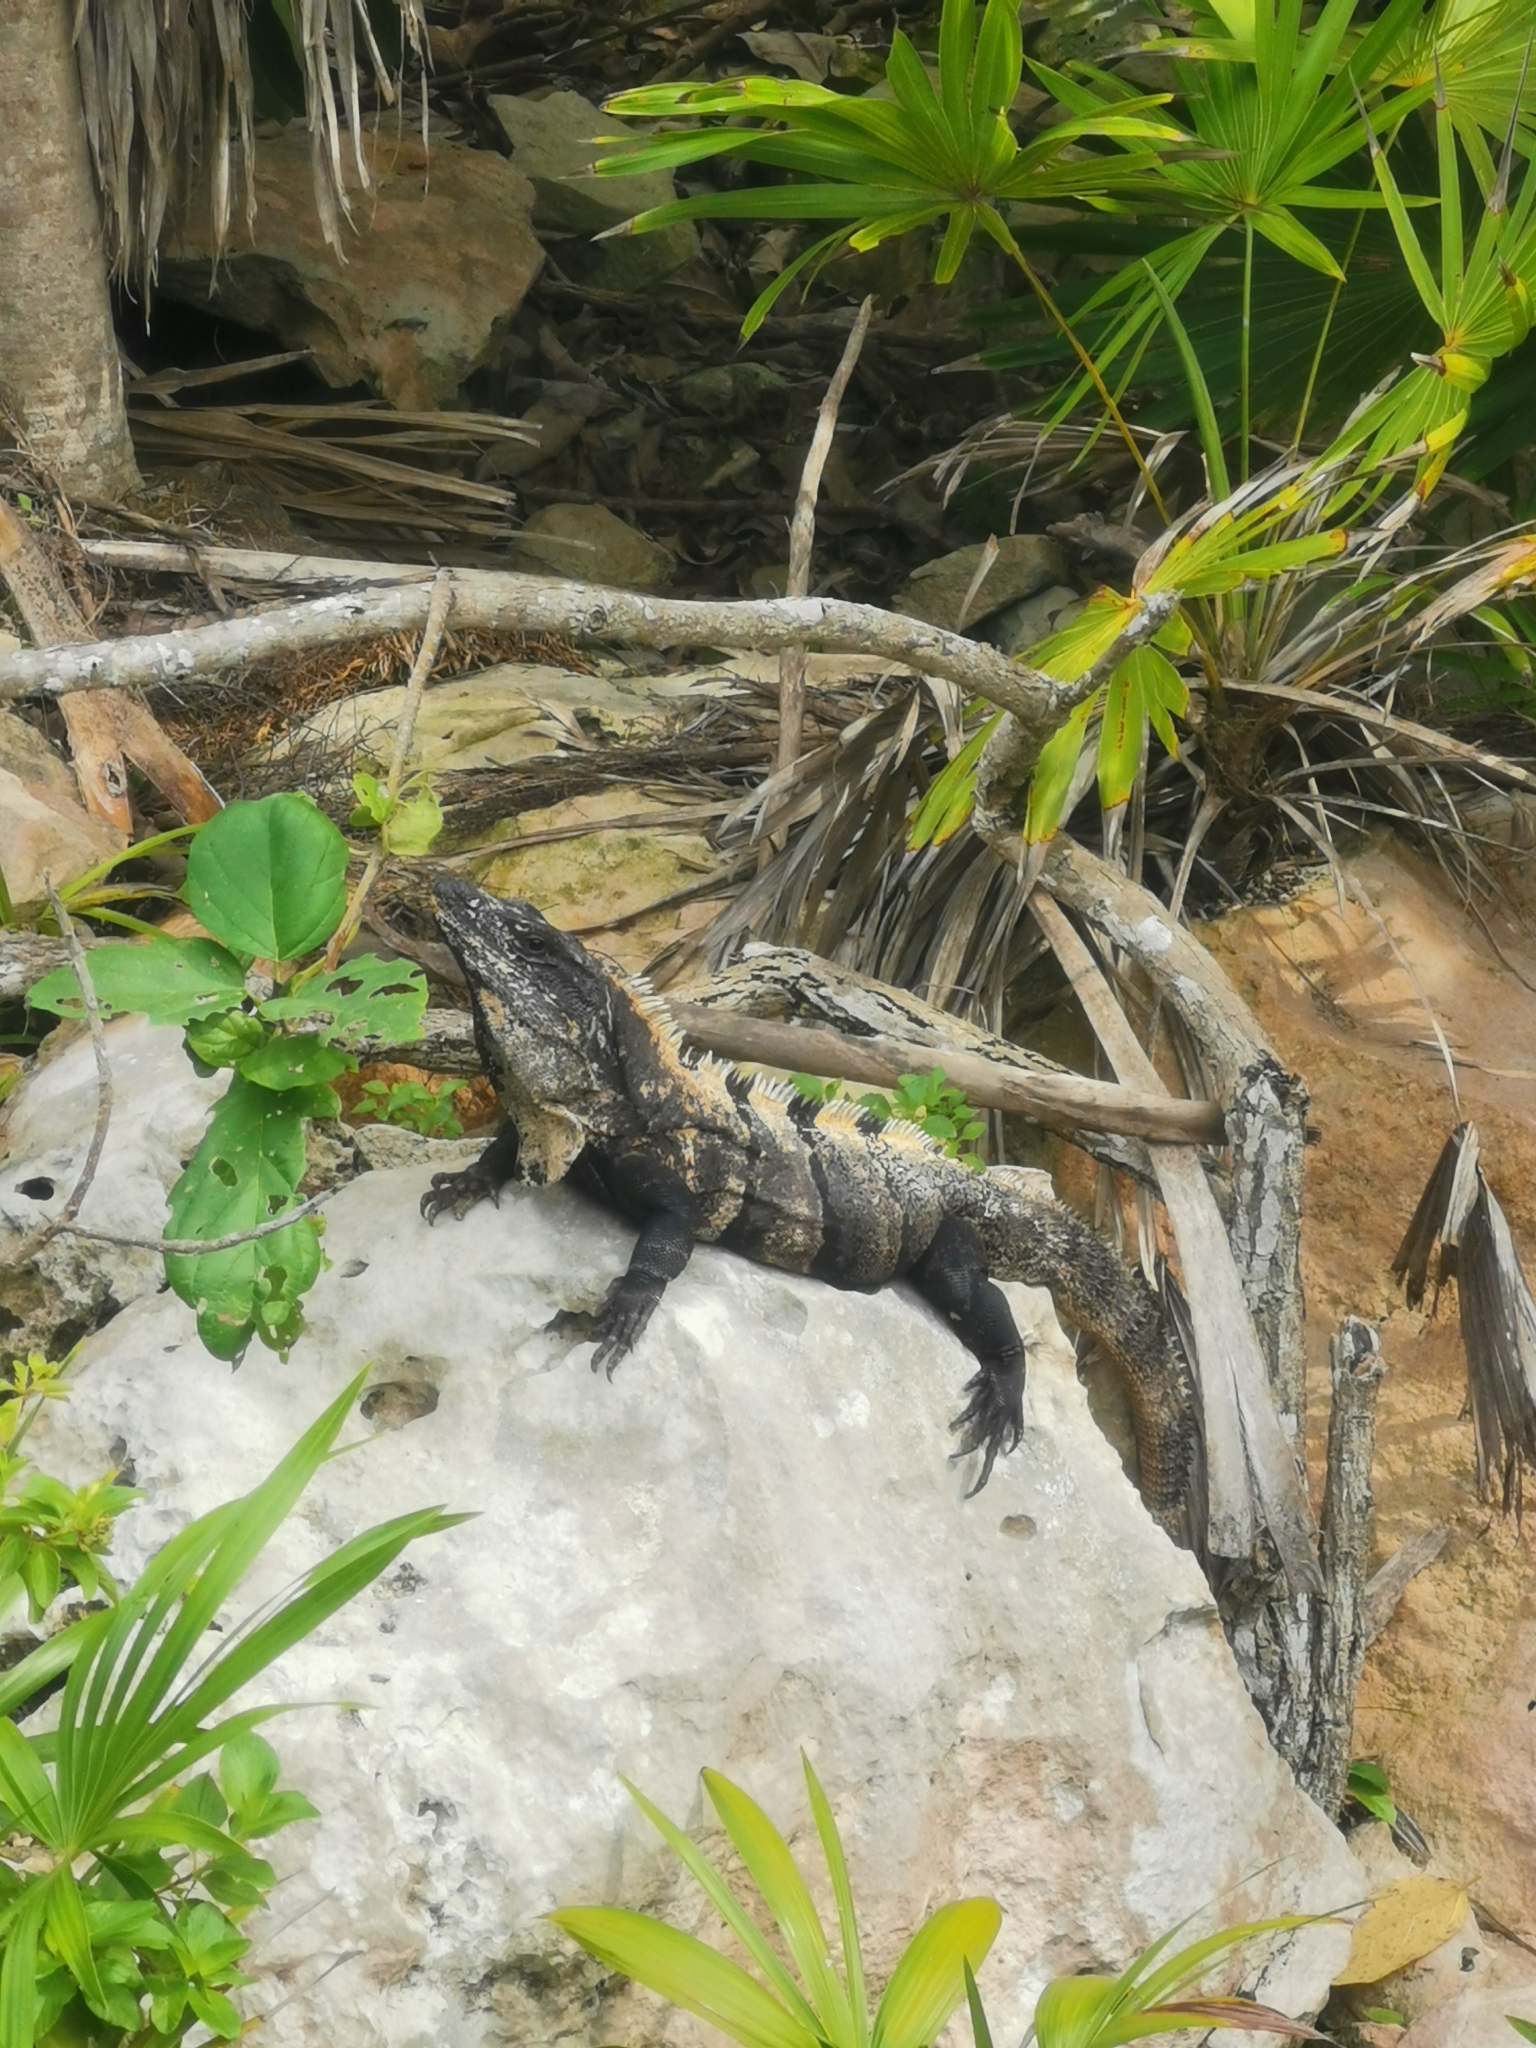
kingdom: Animalia
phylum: Chordata
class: Squamata
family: Iguanidae
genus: Ctenosaura
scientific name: Ctenosaura similis
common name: Black spiny-tailed iguana
